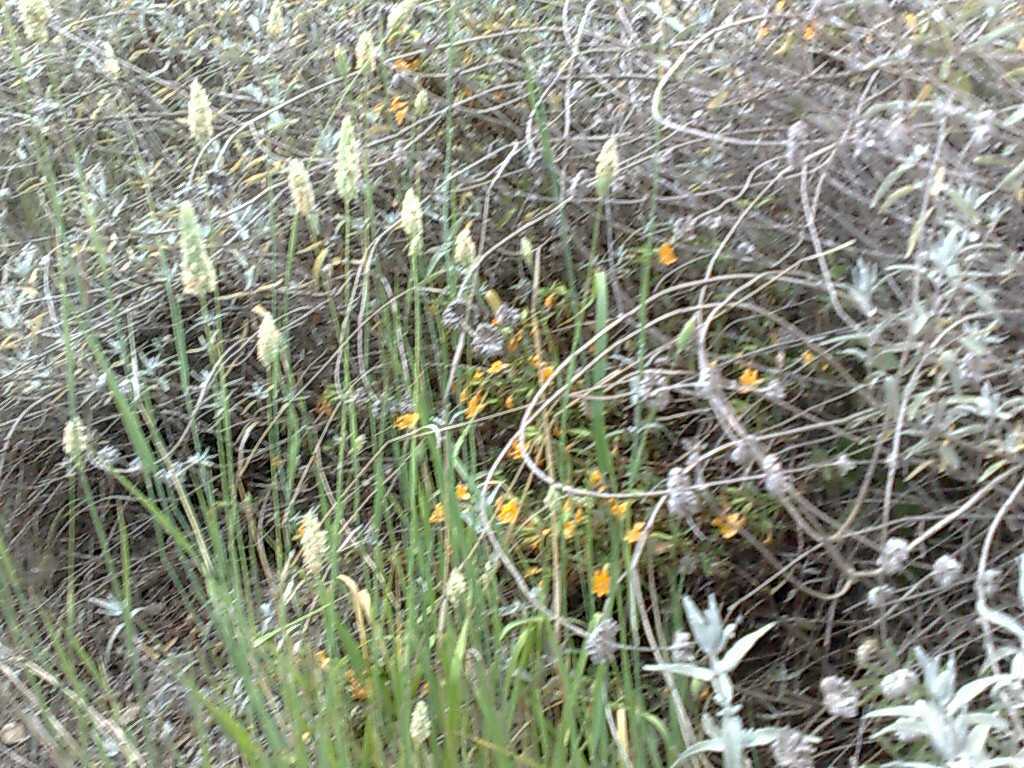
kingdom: Plantae
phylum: Tracheophyta
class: Magnoliopsida
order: Lamiales
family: Lamiaceae
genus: Salvia
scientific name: Salvia leucophylla
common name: Purple sage
